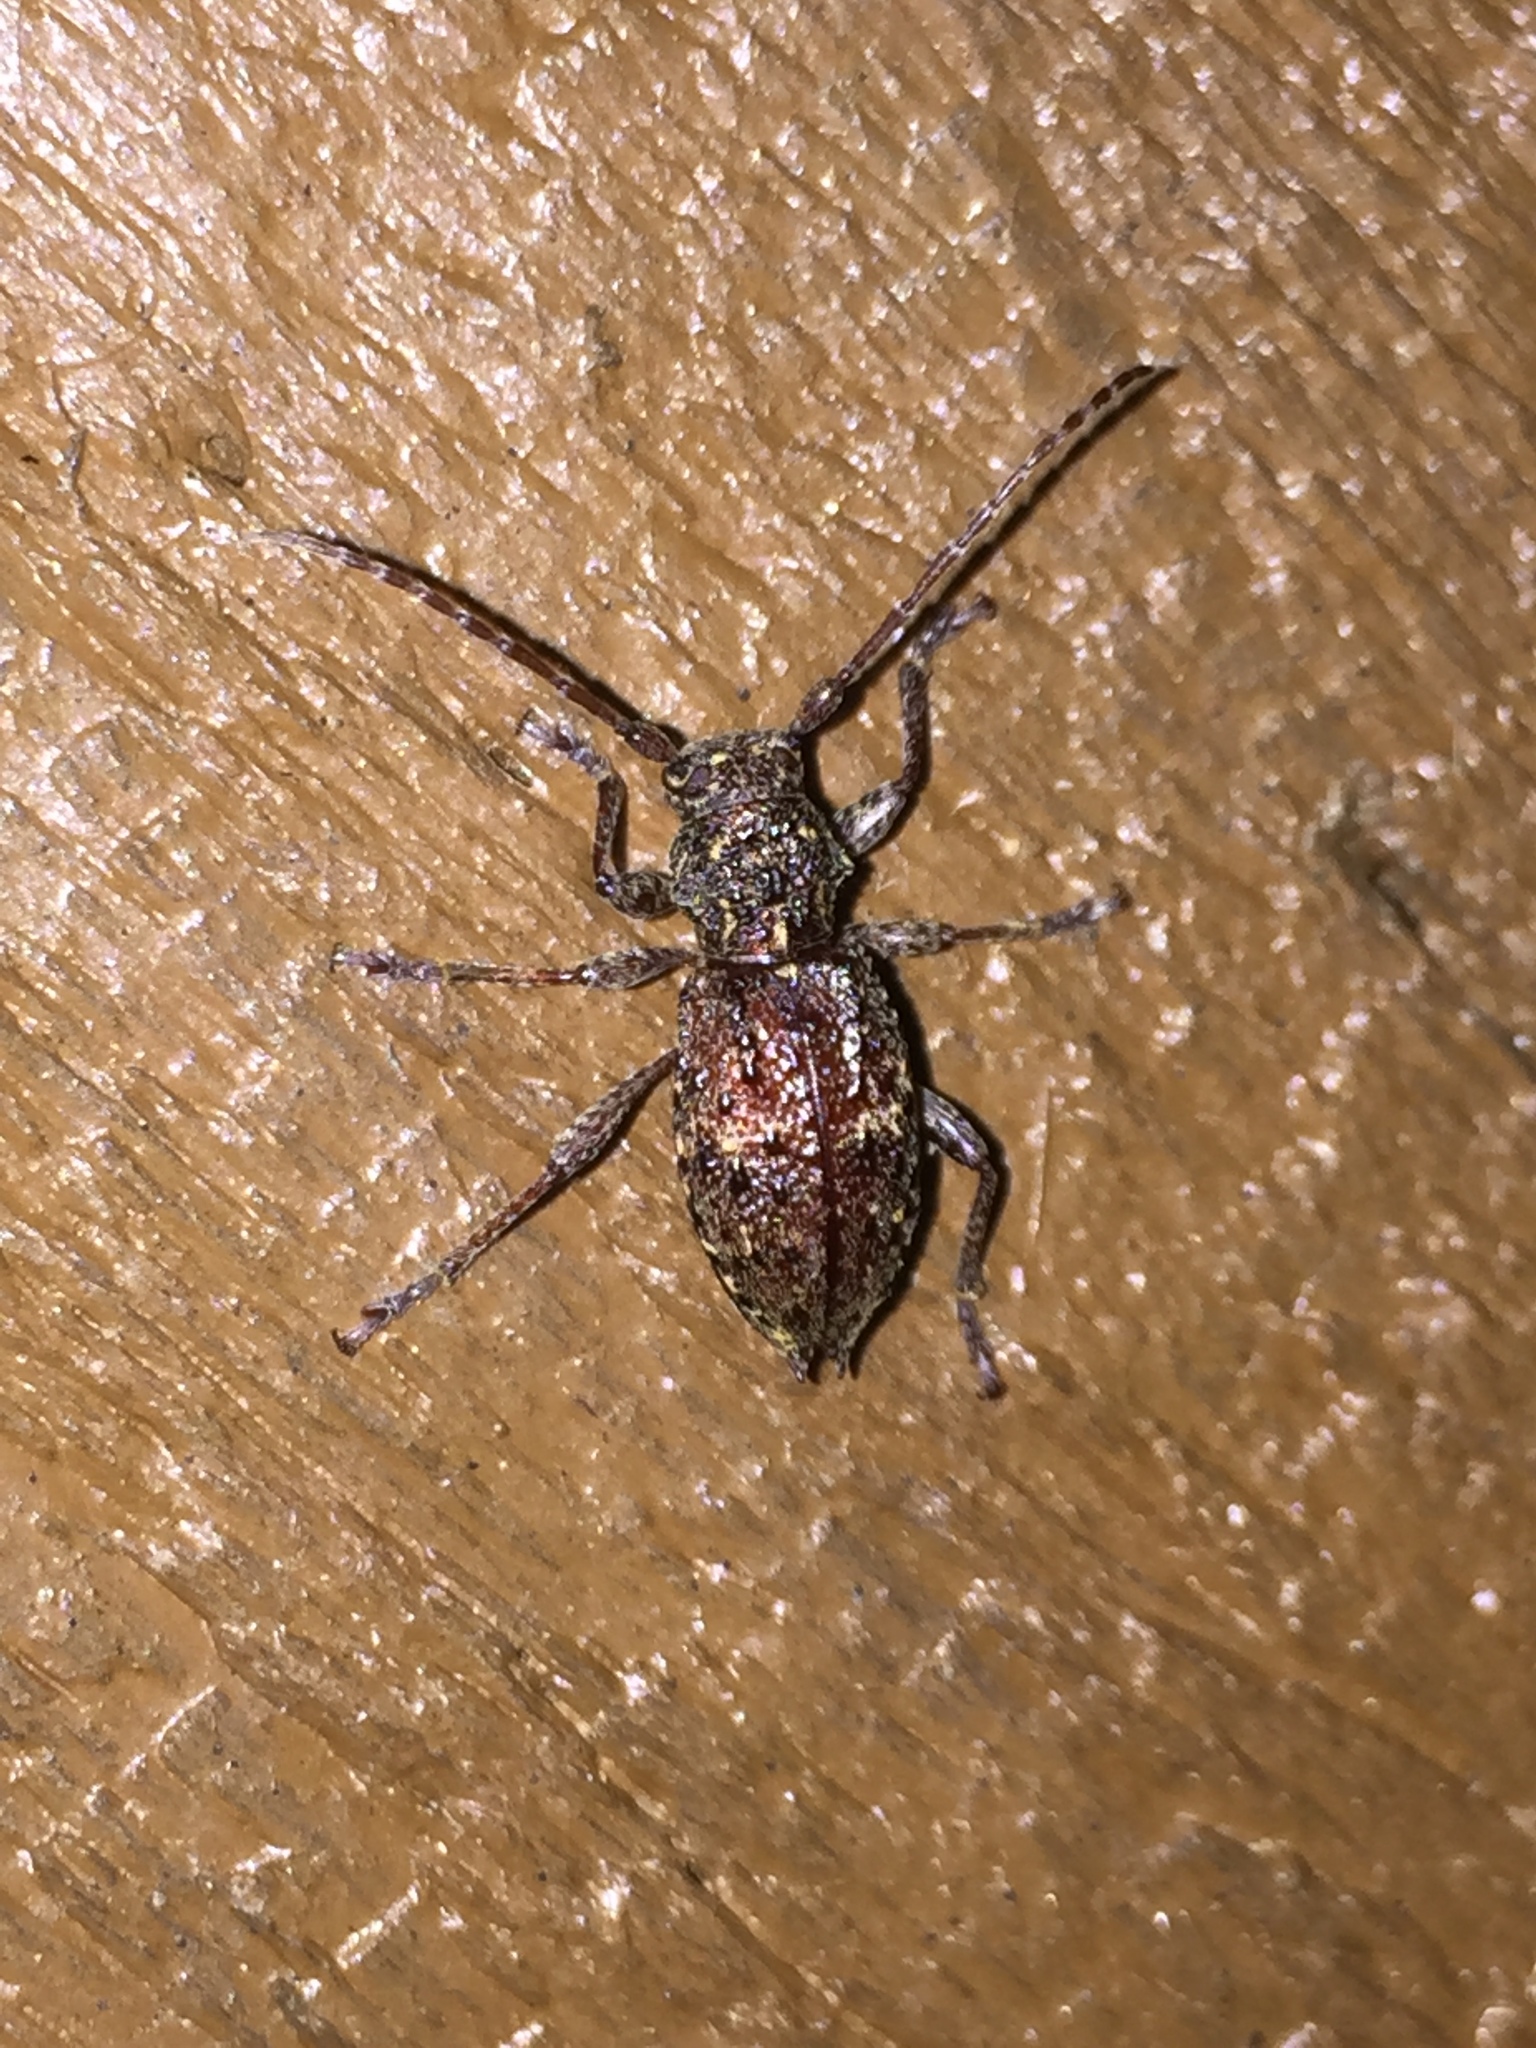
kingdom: Animalia
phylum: Arthropoda
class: Insecta
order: Coleoptera
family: Cerambycidae
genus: Plectrura
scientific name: Plectrura spinicauda
